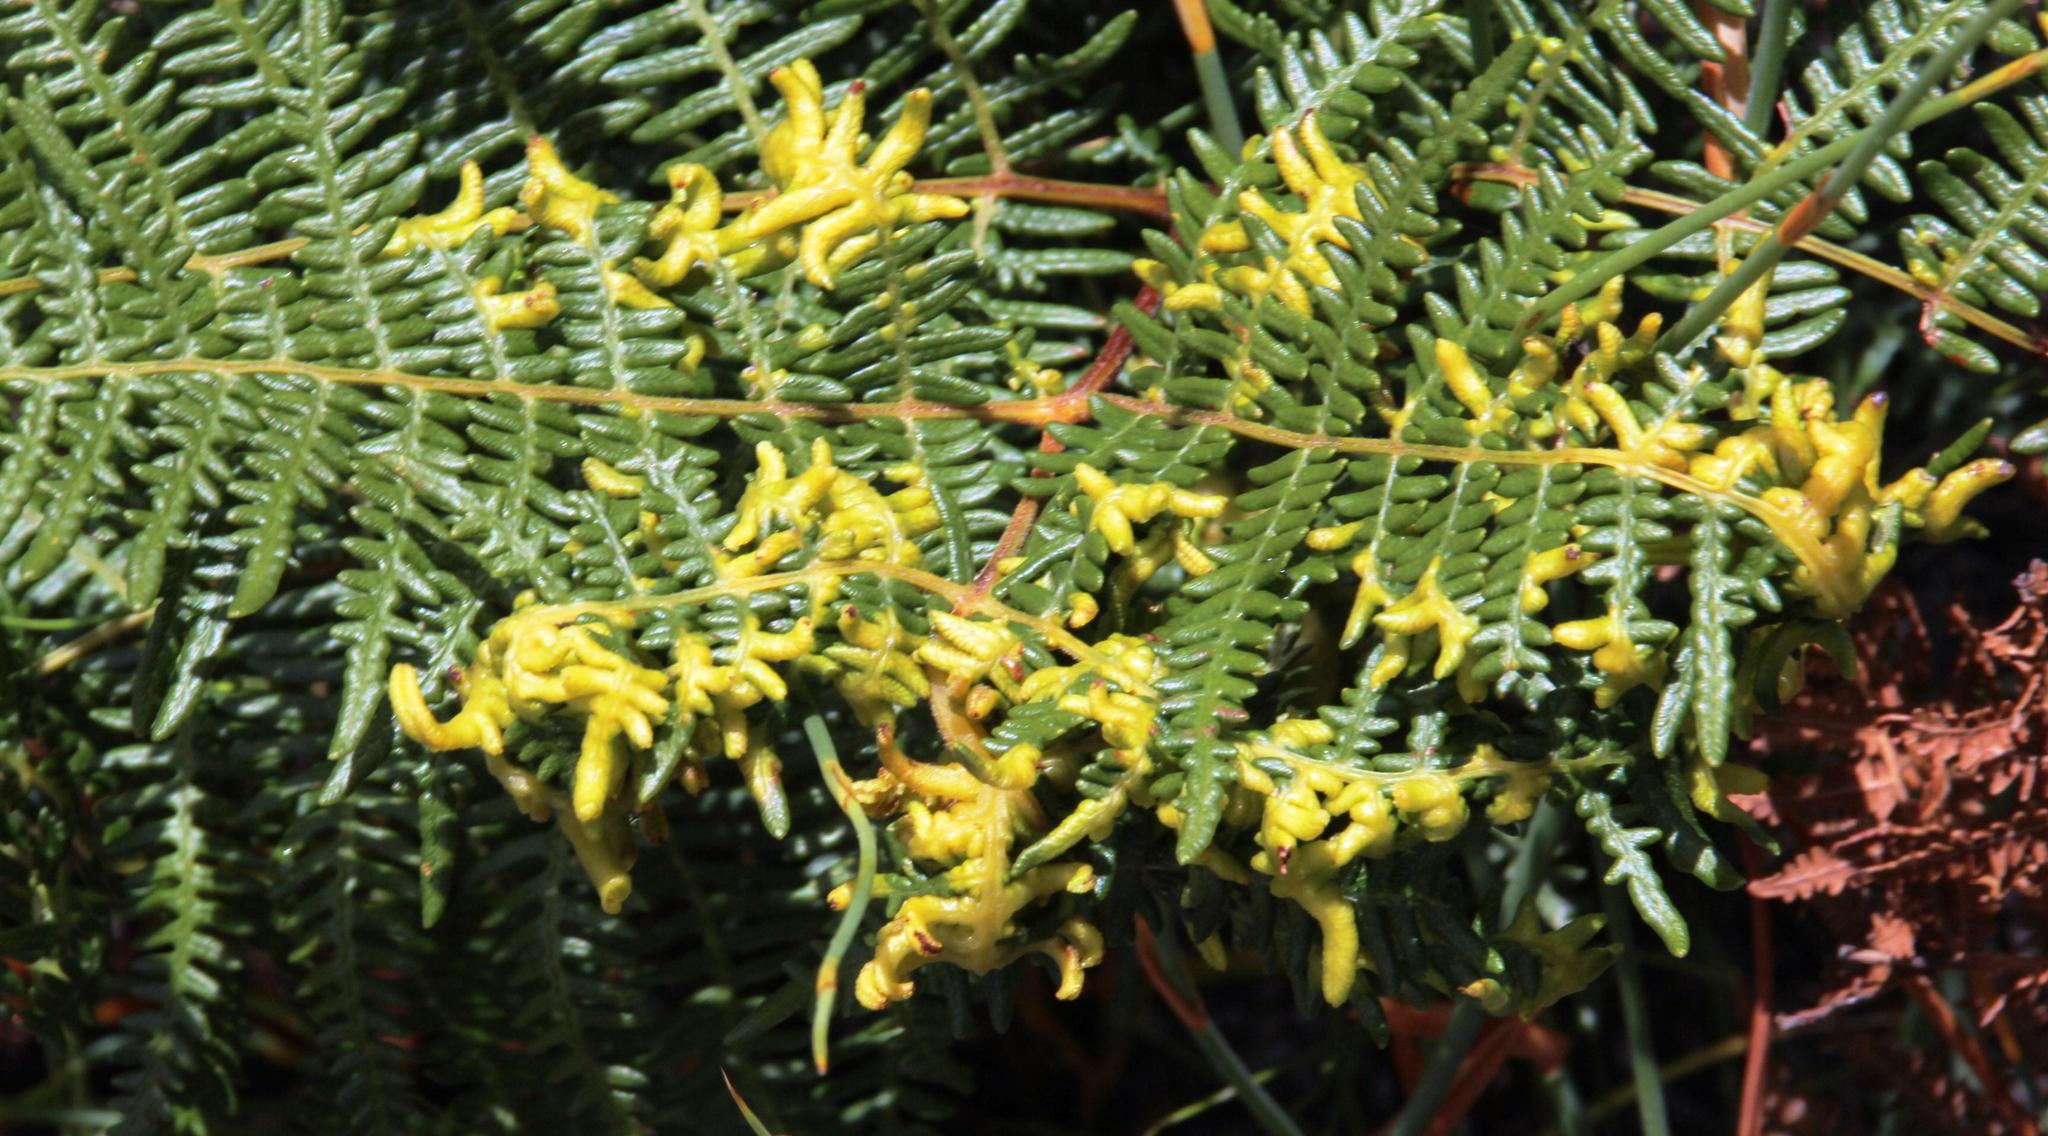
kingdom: Animalia
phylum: Arthropoda
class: Arachnida
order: Trombidiformes
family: Eriophyidae
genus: Eriophyes
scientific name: Eriophyes
